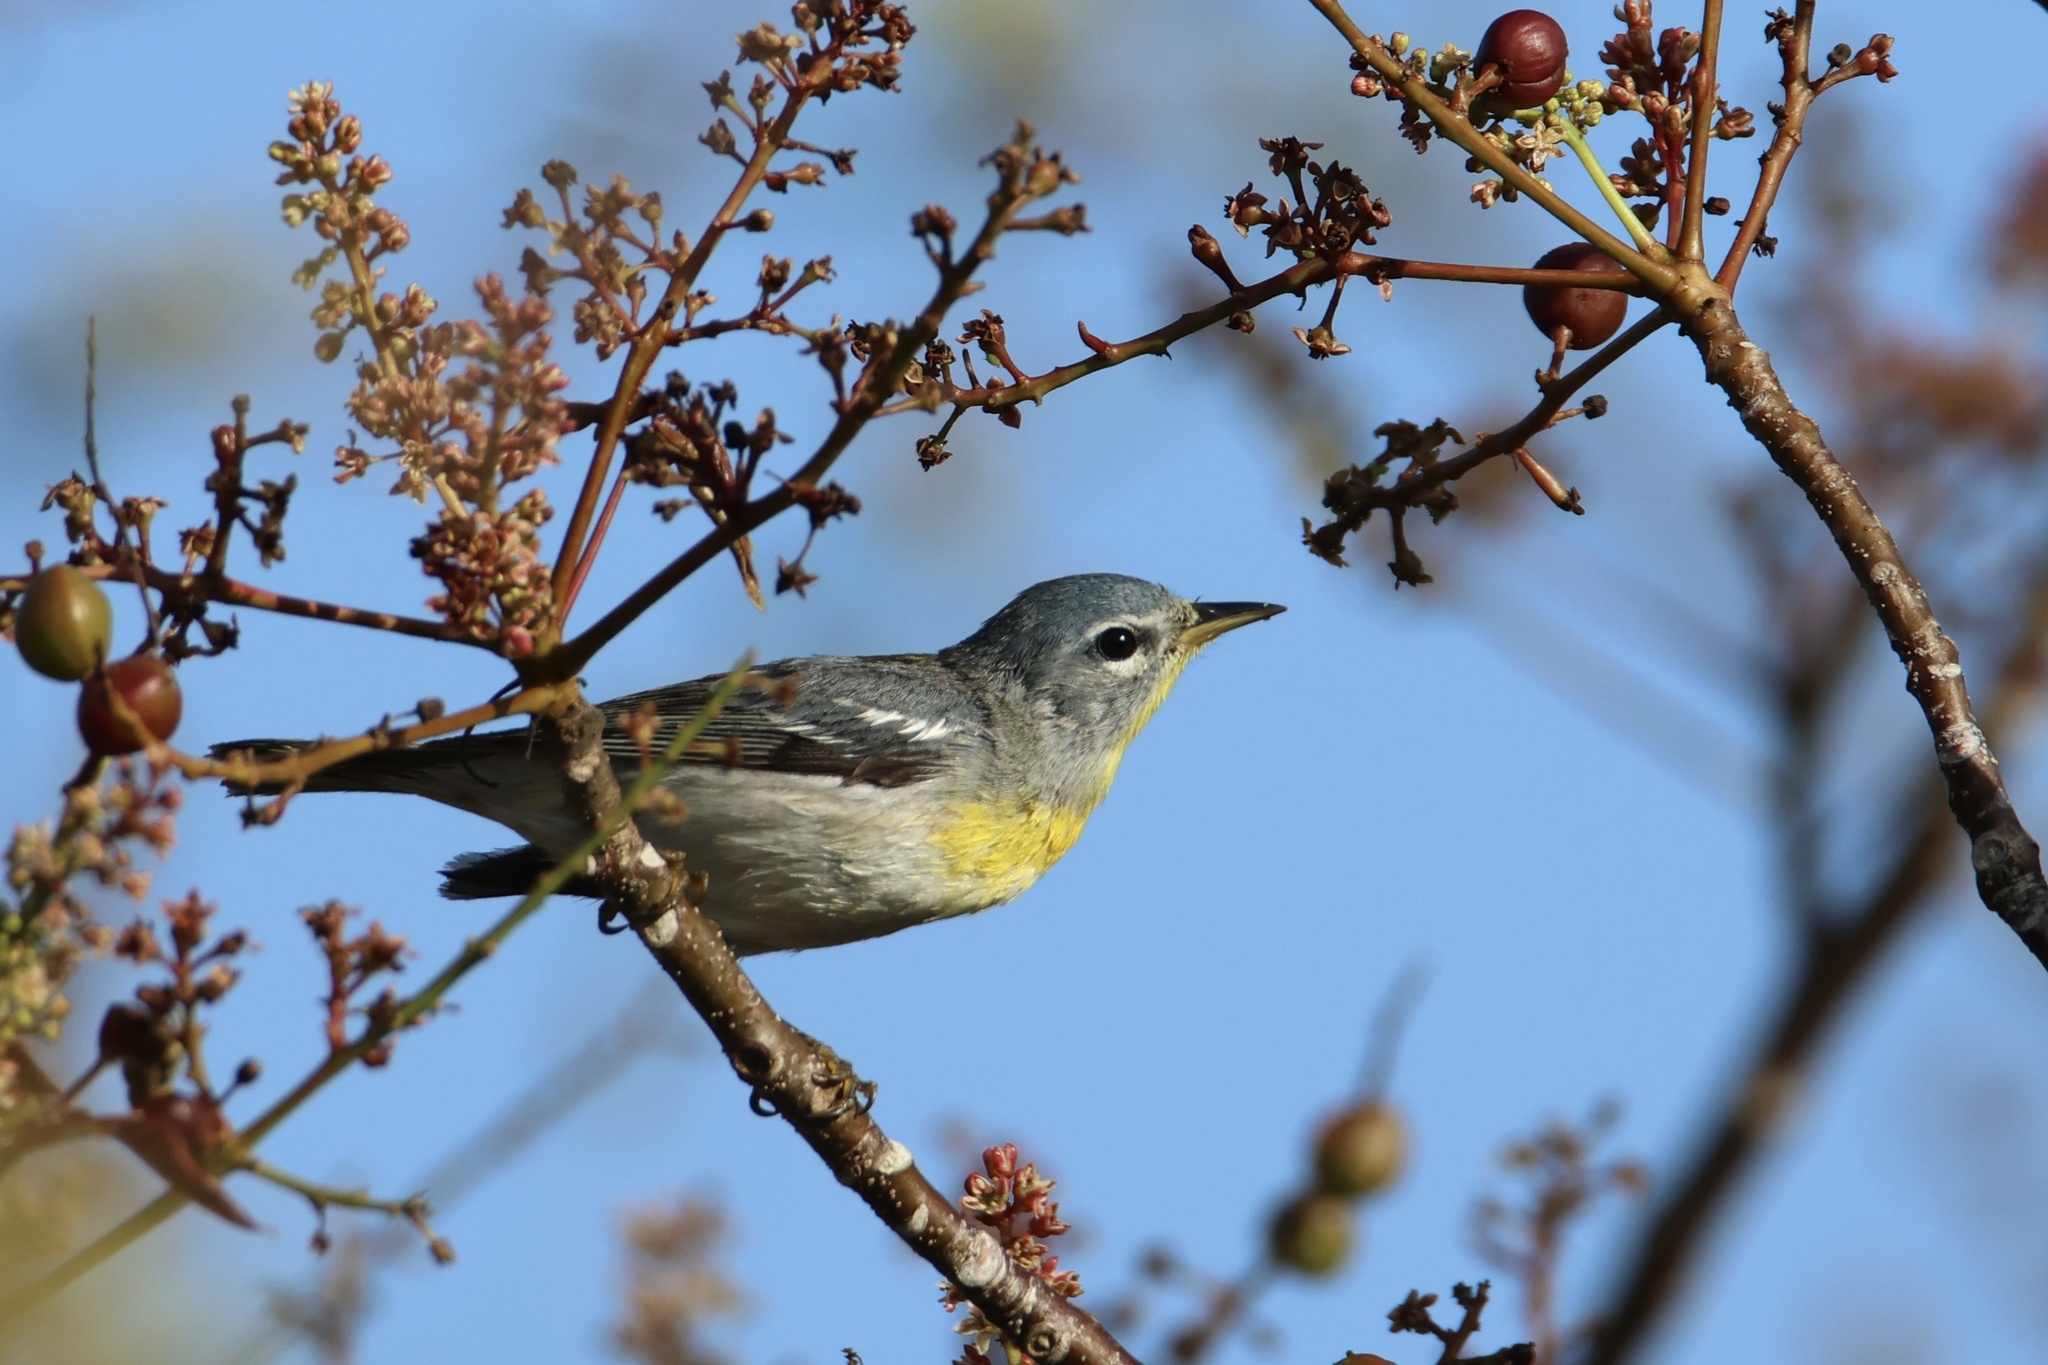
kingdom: Animalia
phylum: Chordata
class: Aves
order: Passeriformes
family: Parulidae
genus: Setophaga
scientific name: Setophaga americana
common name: Northern parula
